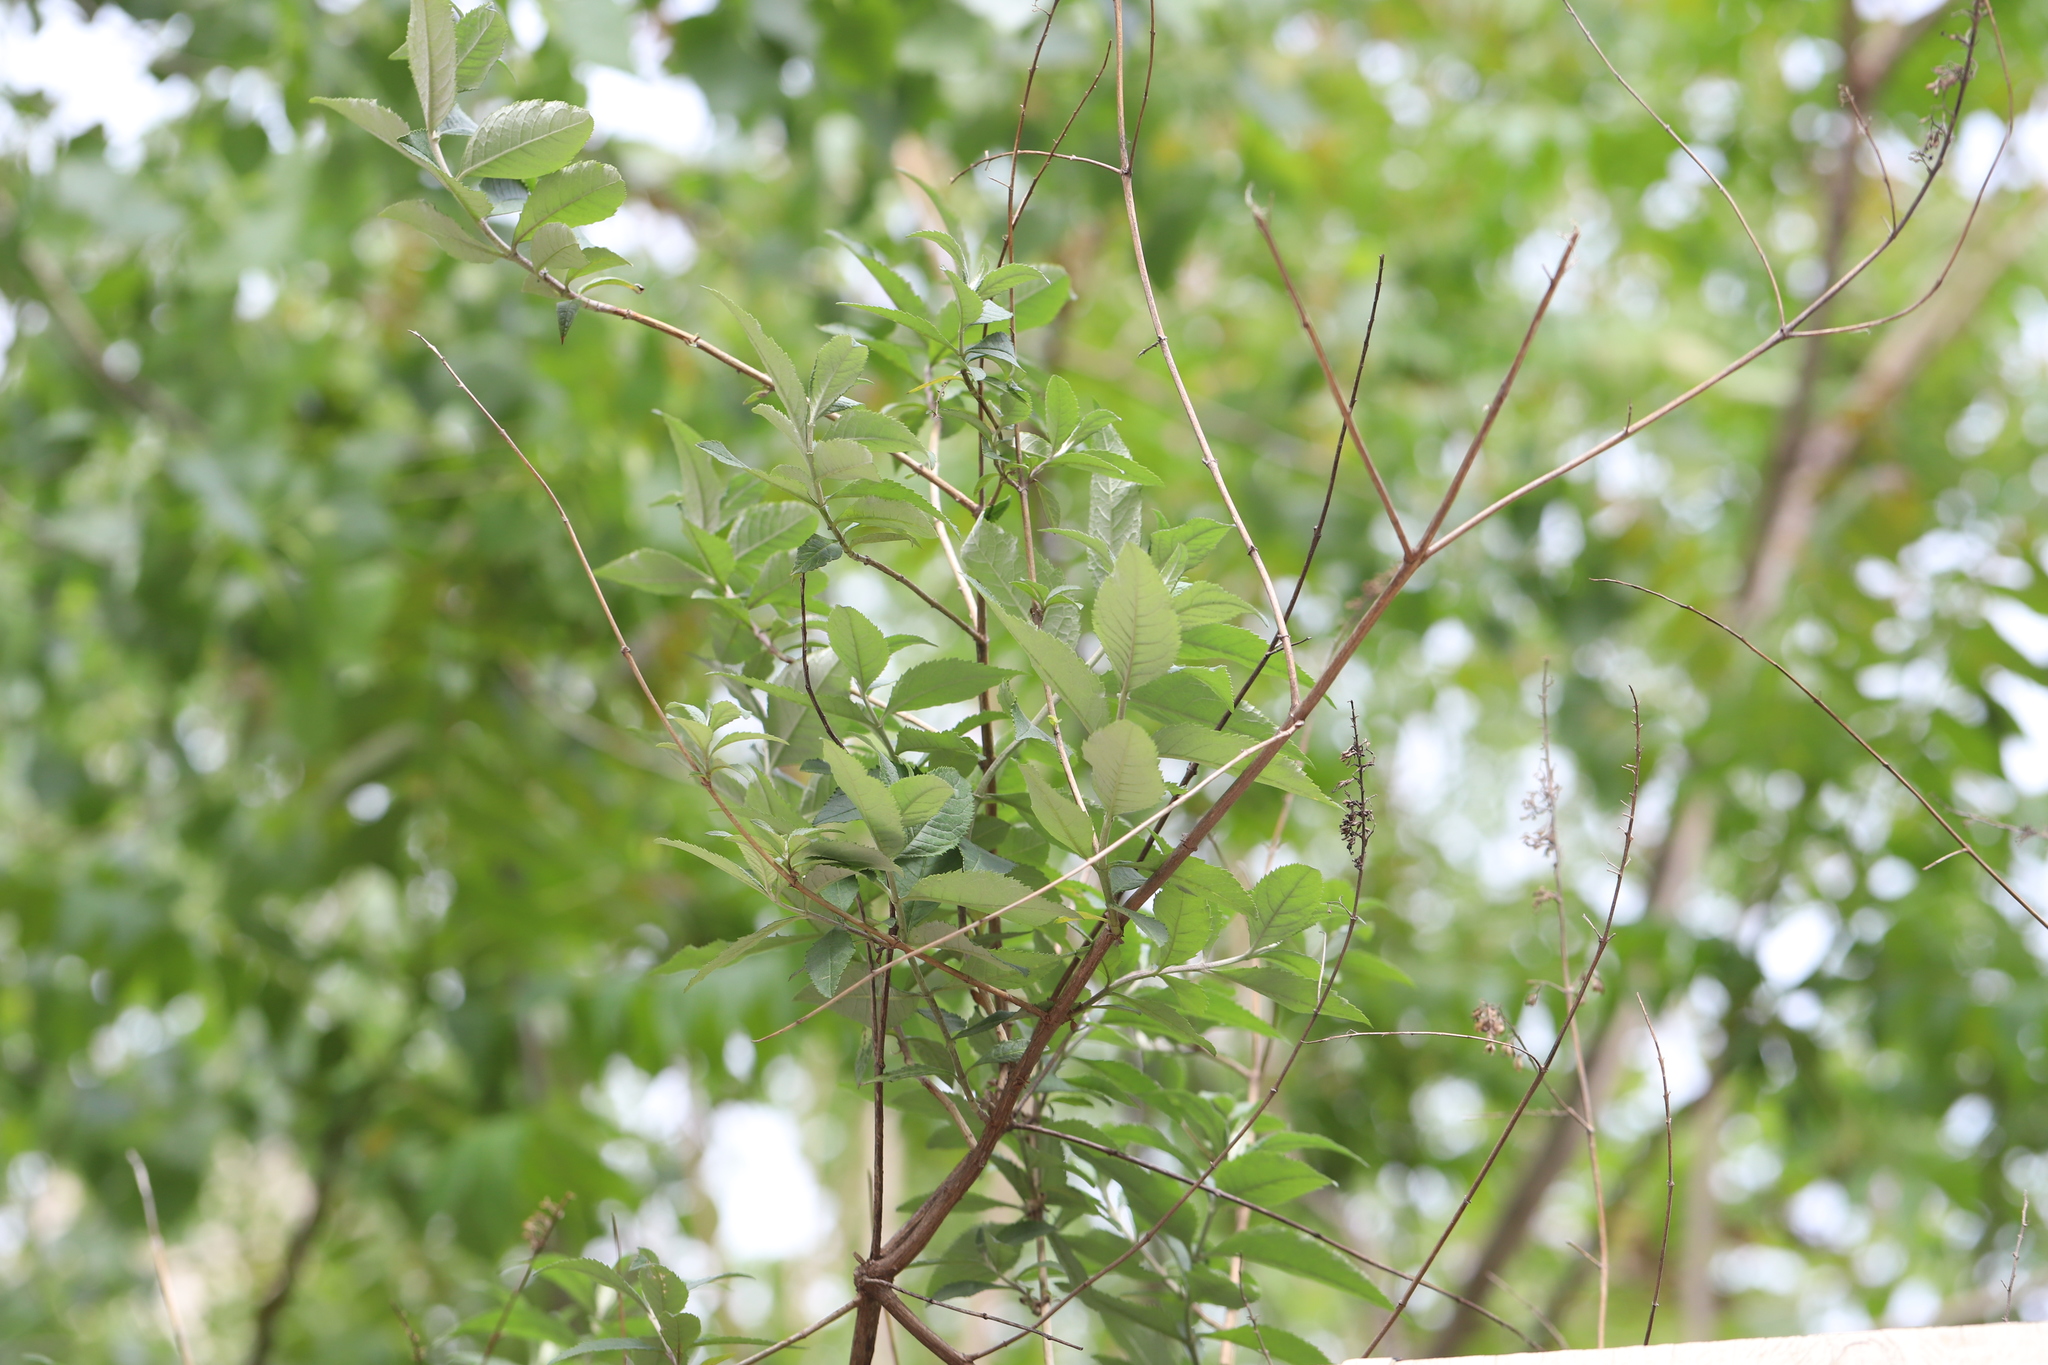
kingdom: Plantae
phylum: Tracheophyta
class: Magnoliopsida
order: Lamiales
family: Paulowniaceae
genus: Paulownia
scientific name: Paulownia tomentosa
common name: Foxglove-tree
